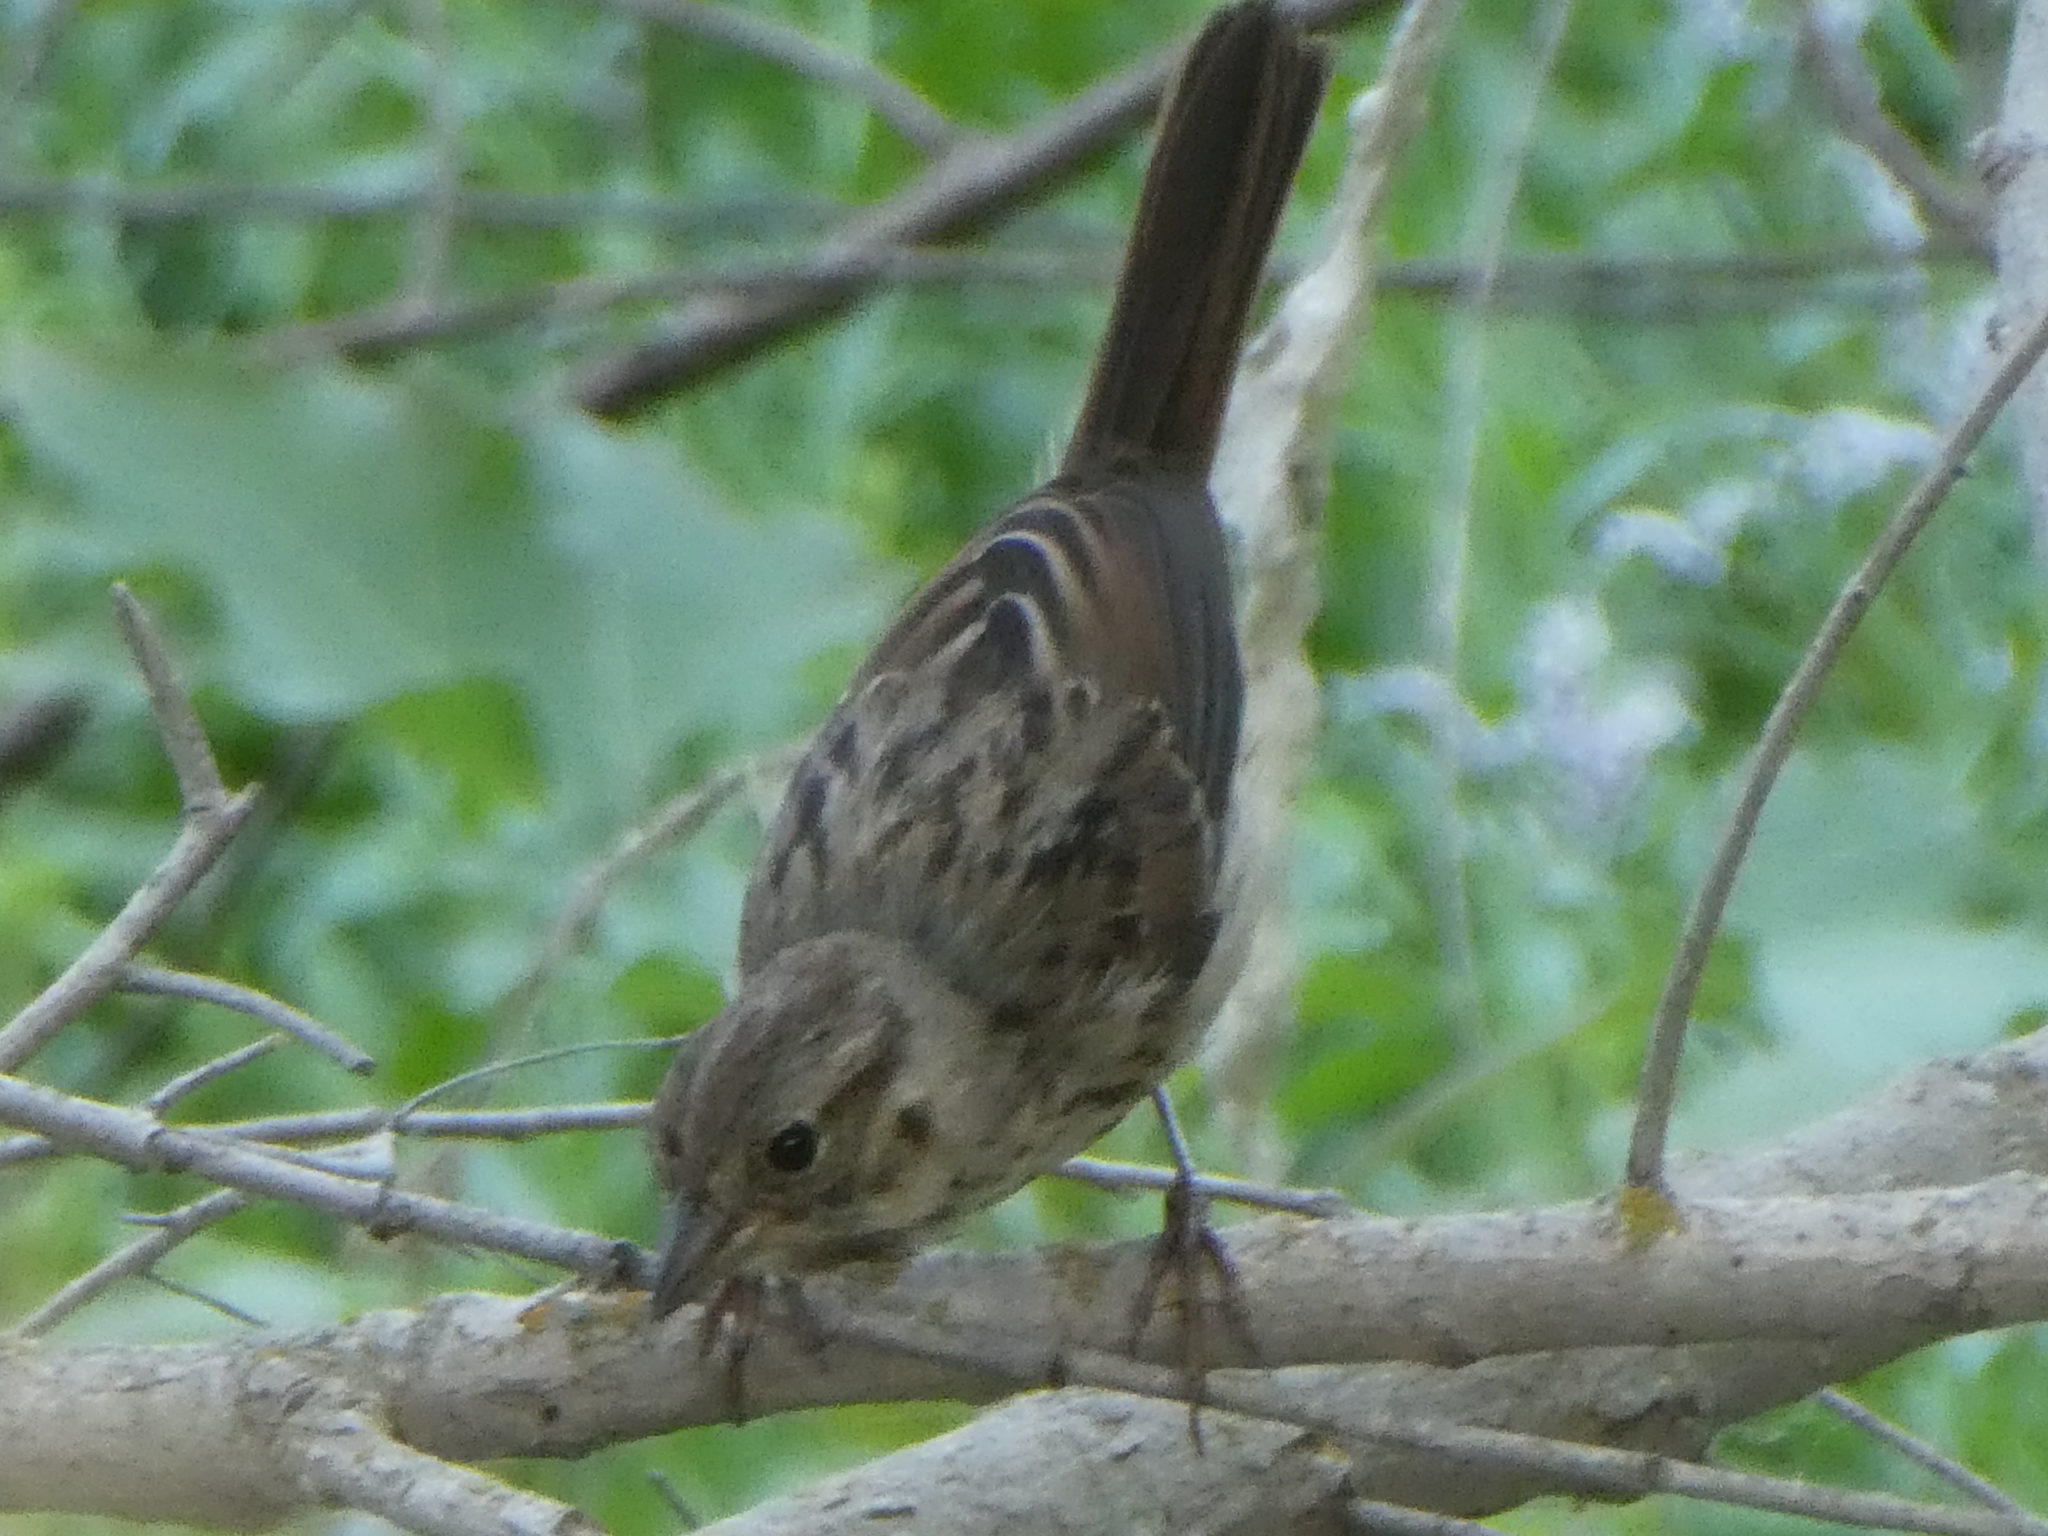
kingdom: Animalia
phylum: Chordata
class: Aves
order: Passeriformes
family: Passerellidae
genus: Melospiza
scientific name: Melospiza melodia
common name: Song sparrow
